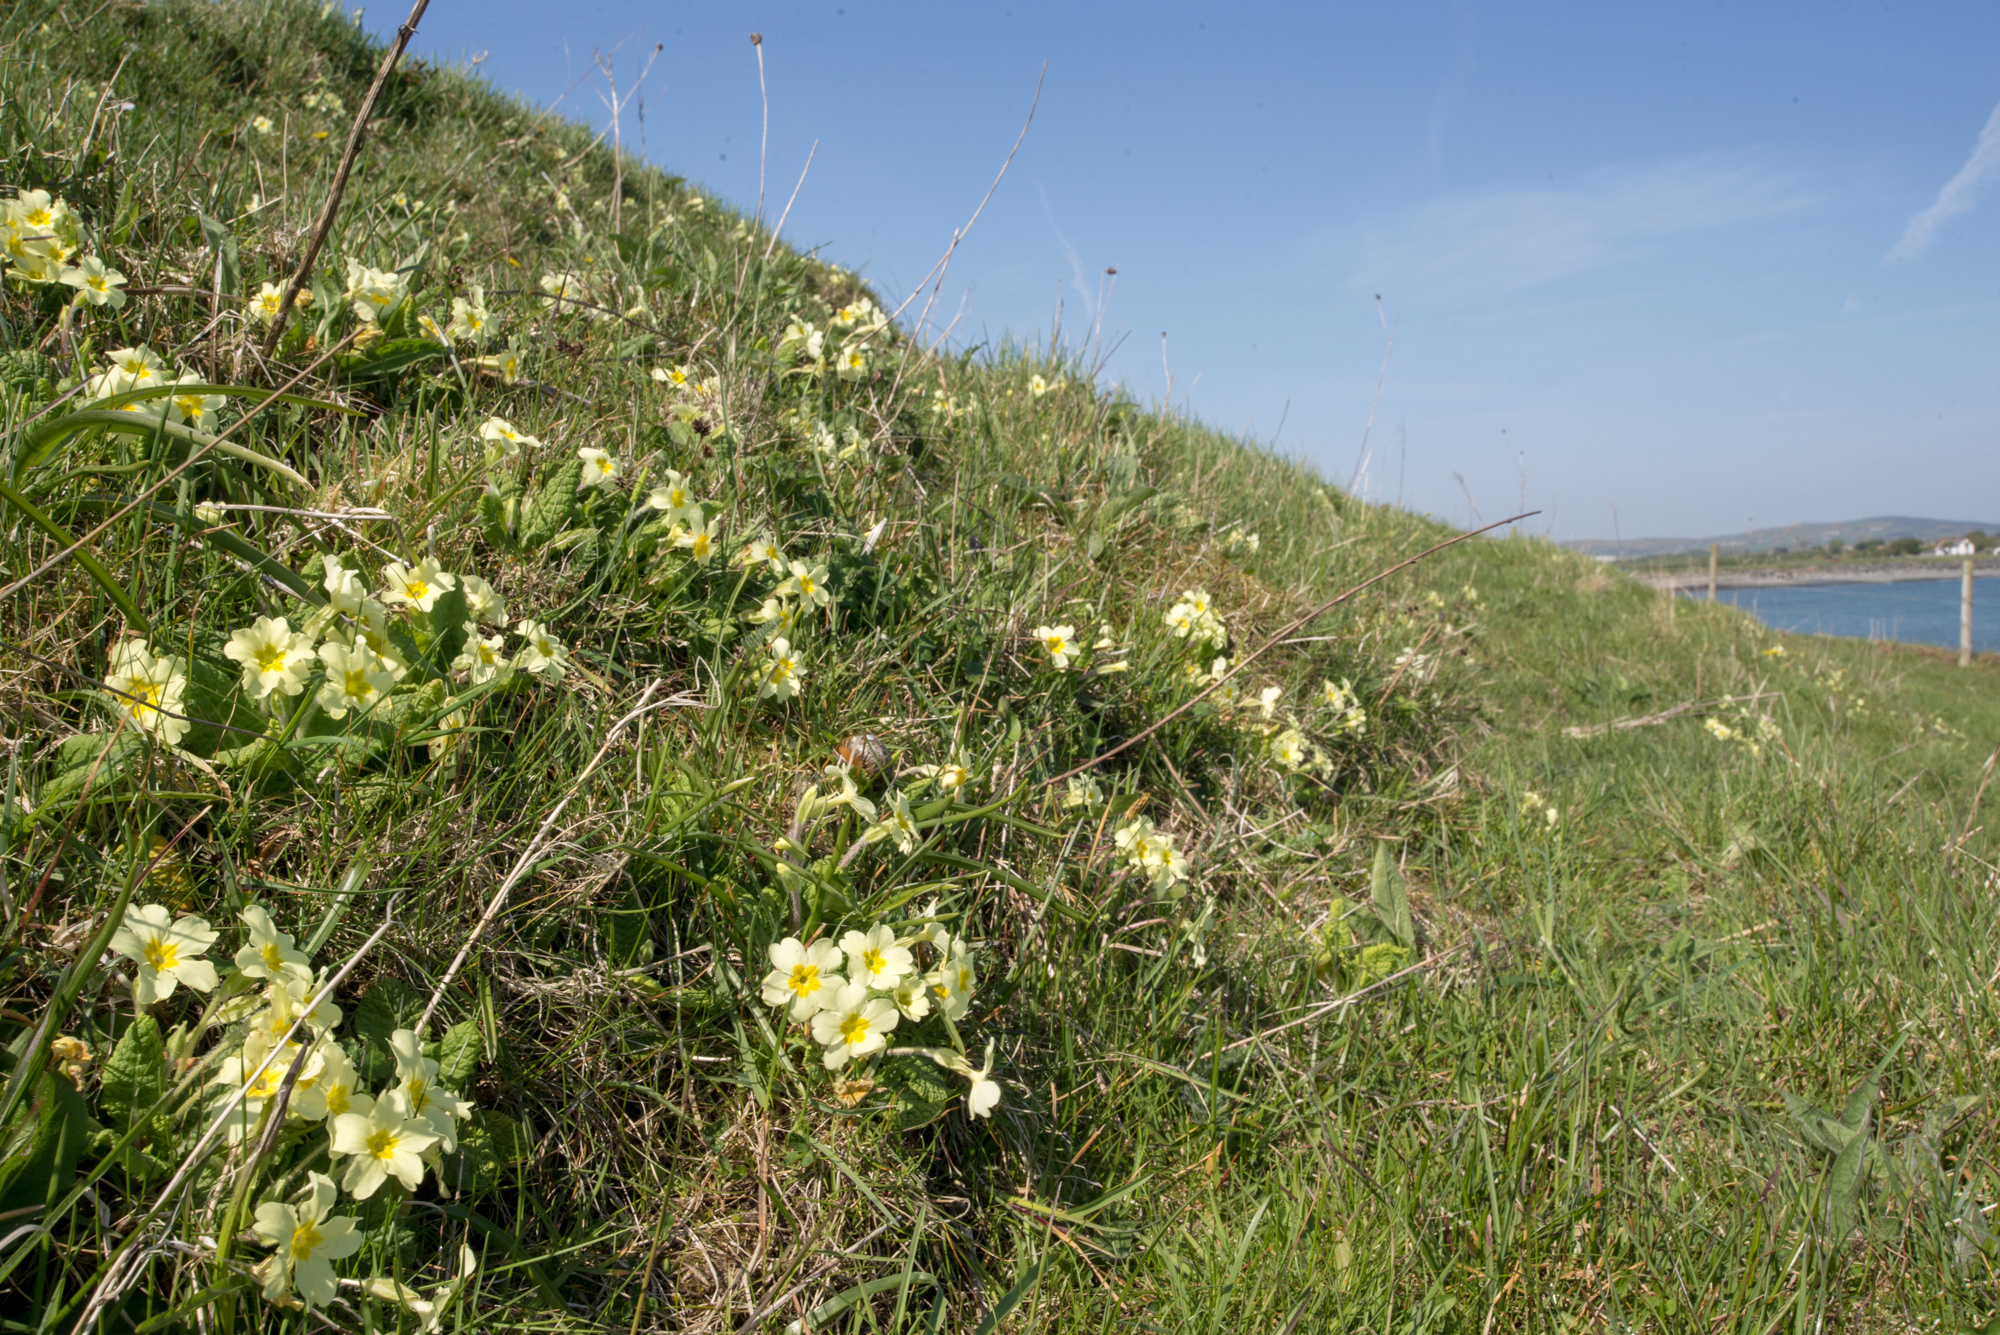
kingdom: Plantae
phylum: Tracheophyta
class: Magnoliopsida
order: Ericales
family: Primulaceae
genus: Primula
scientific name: Primula vulgaris
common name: Primrose
